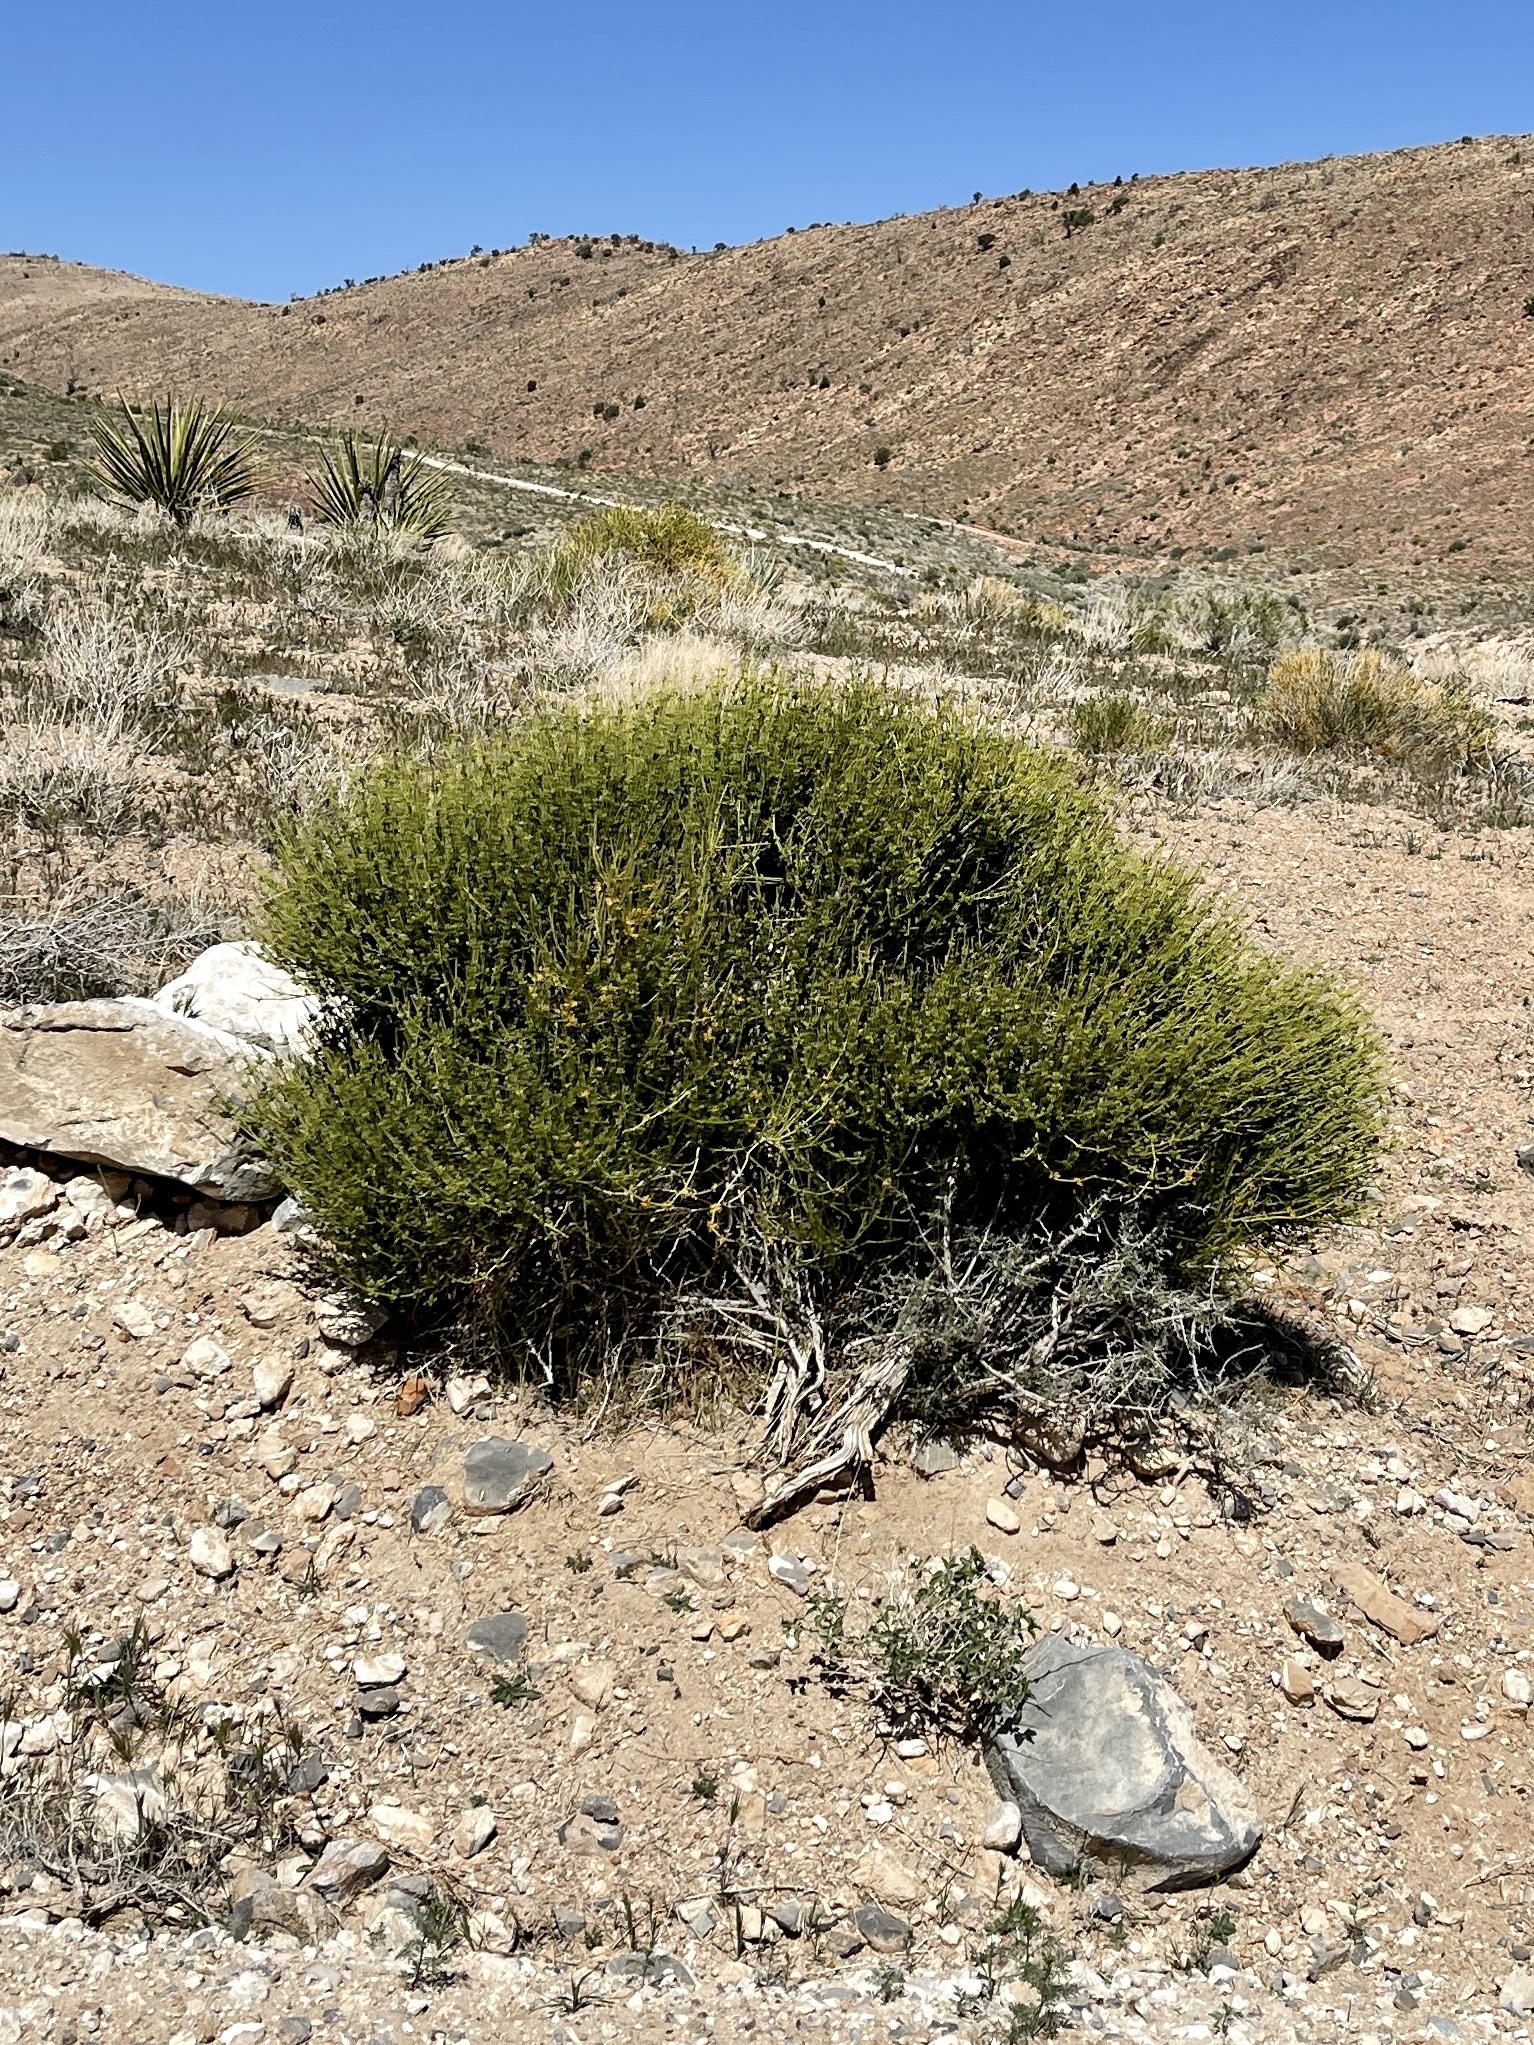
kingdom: Plantae
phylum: Tracheophyta
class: Gnetopsida
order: Ephedrales
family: Ephedraceae
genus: Ephedra
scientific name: Ephedra viridis
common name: Green ephedra
